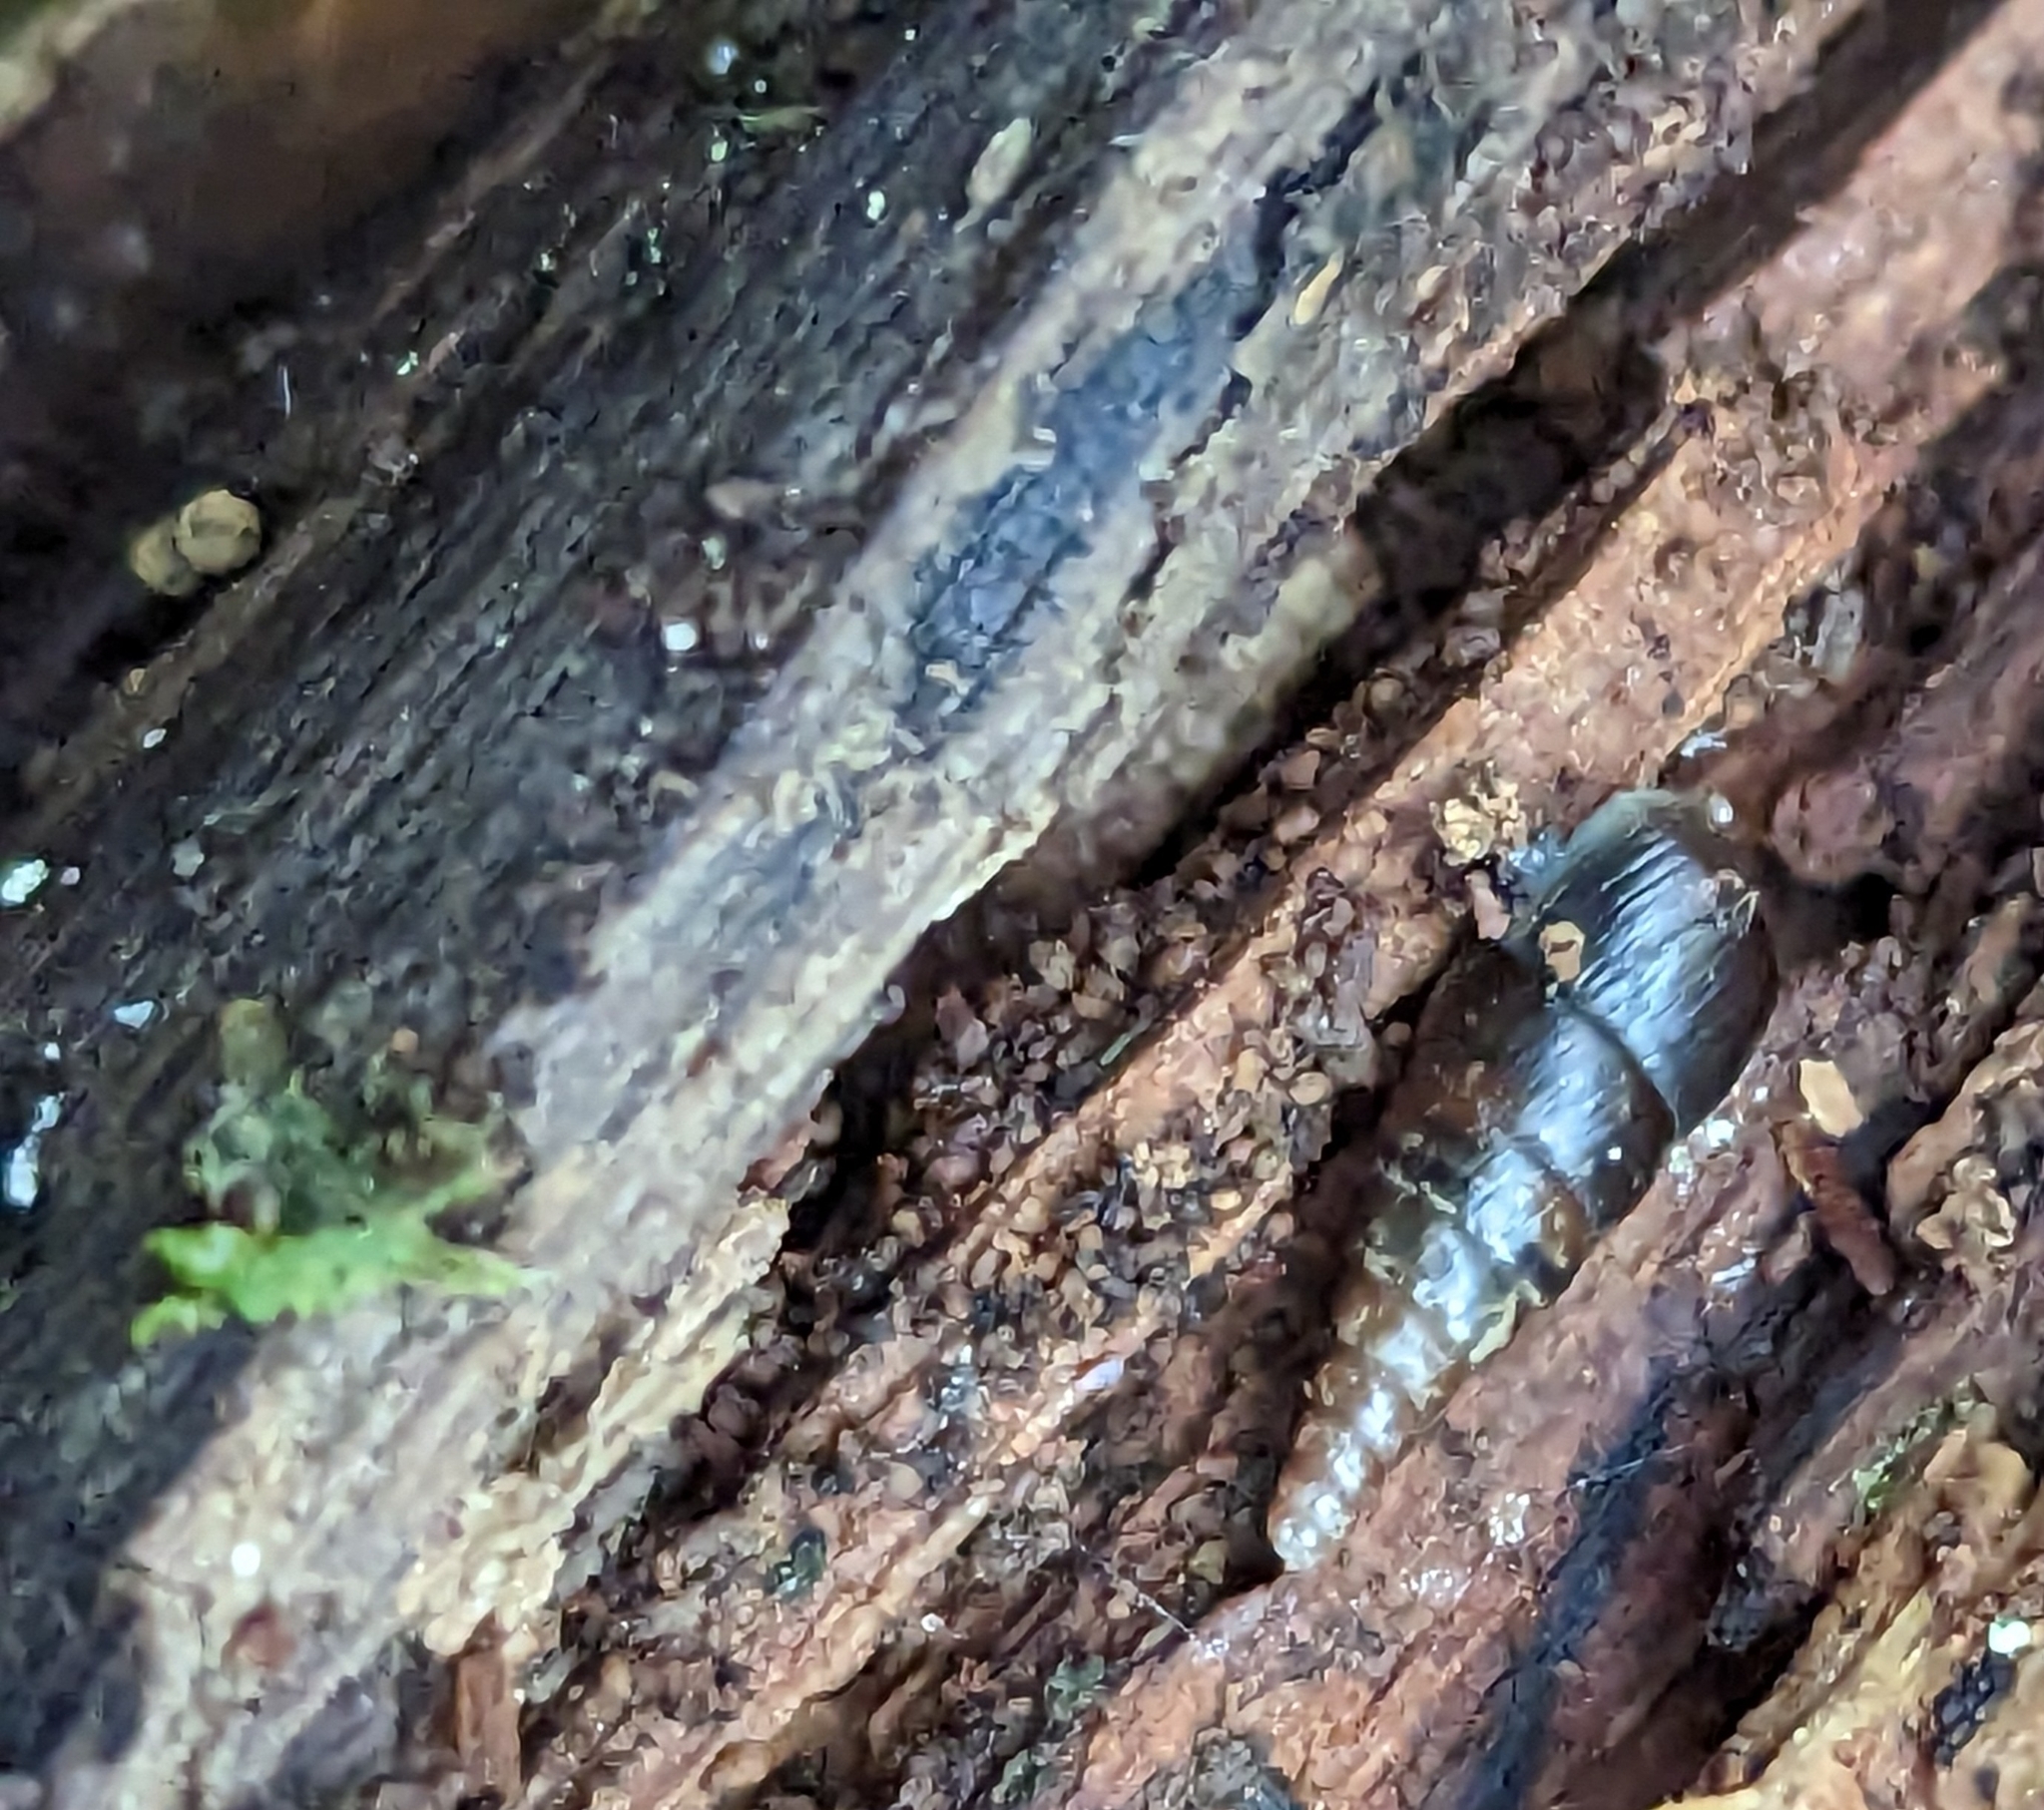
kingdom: Animalia
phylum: Mollusca
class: Gastropoda
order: Stylommatophora
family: Clausiliidae
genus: Cochlodina
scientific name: Cochlodina laminata
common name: Plaited door snail
